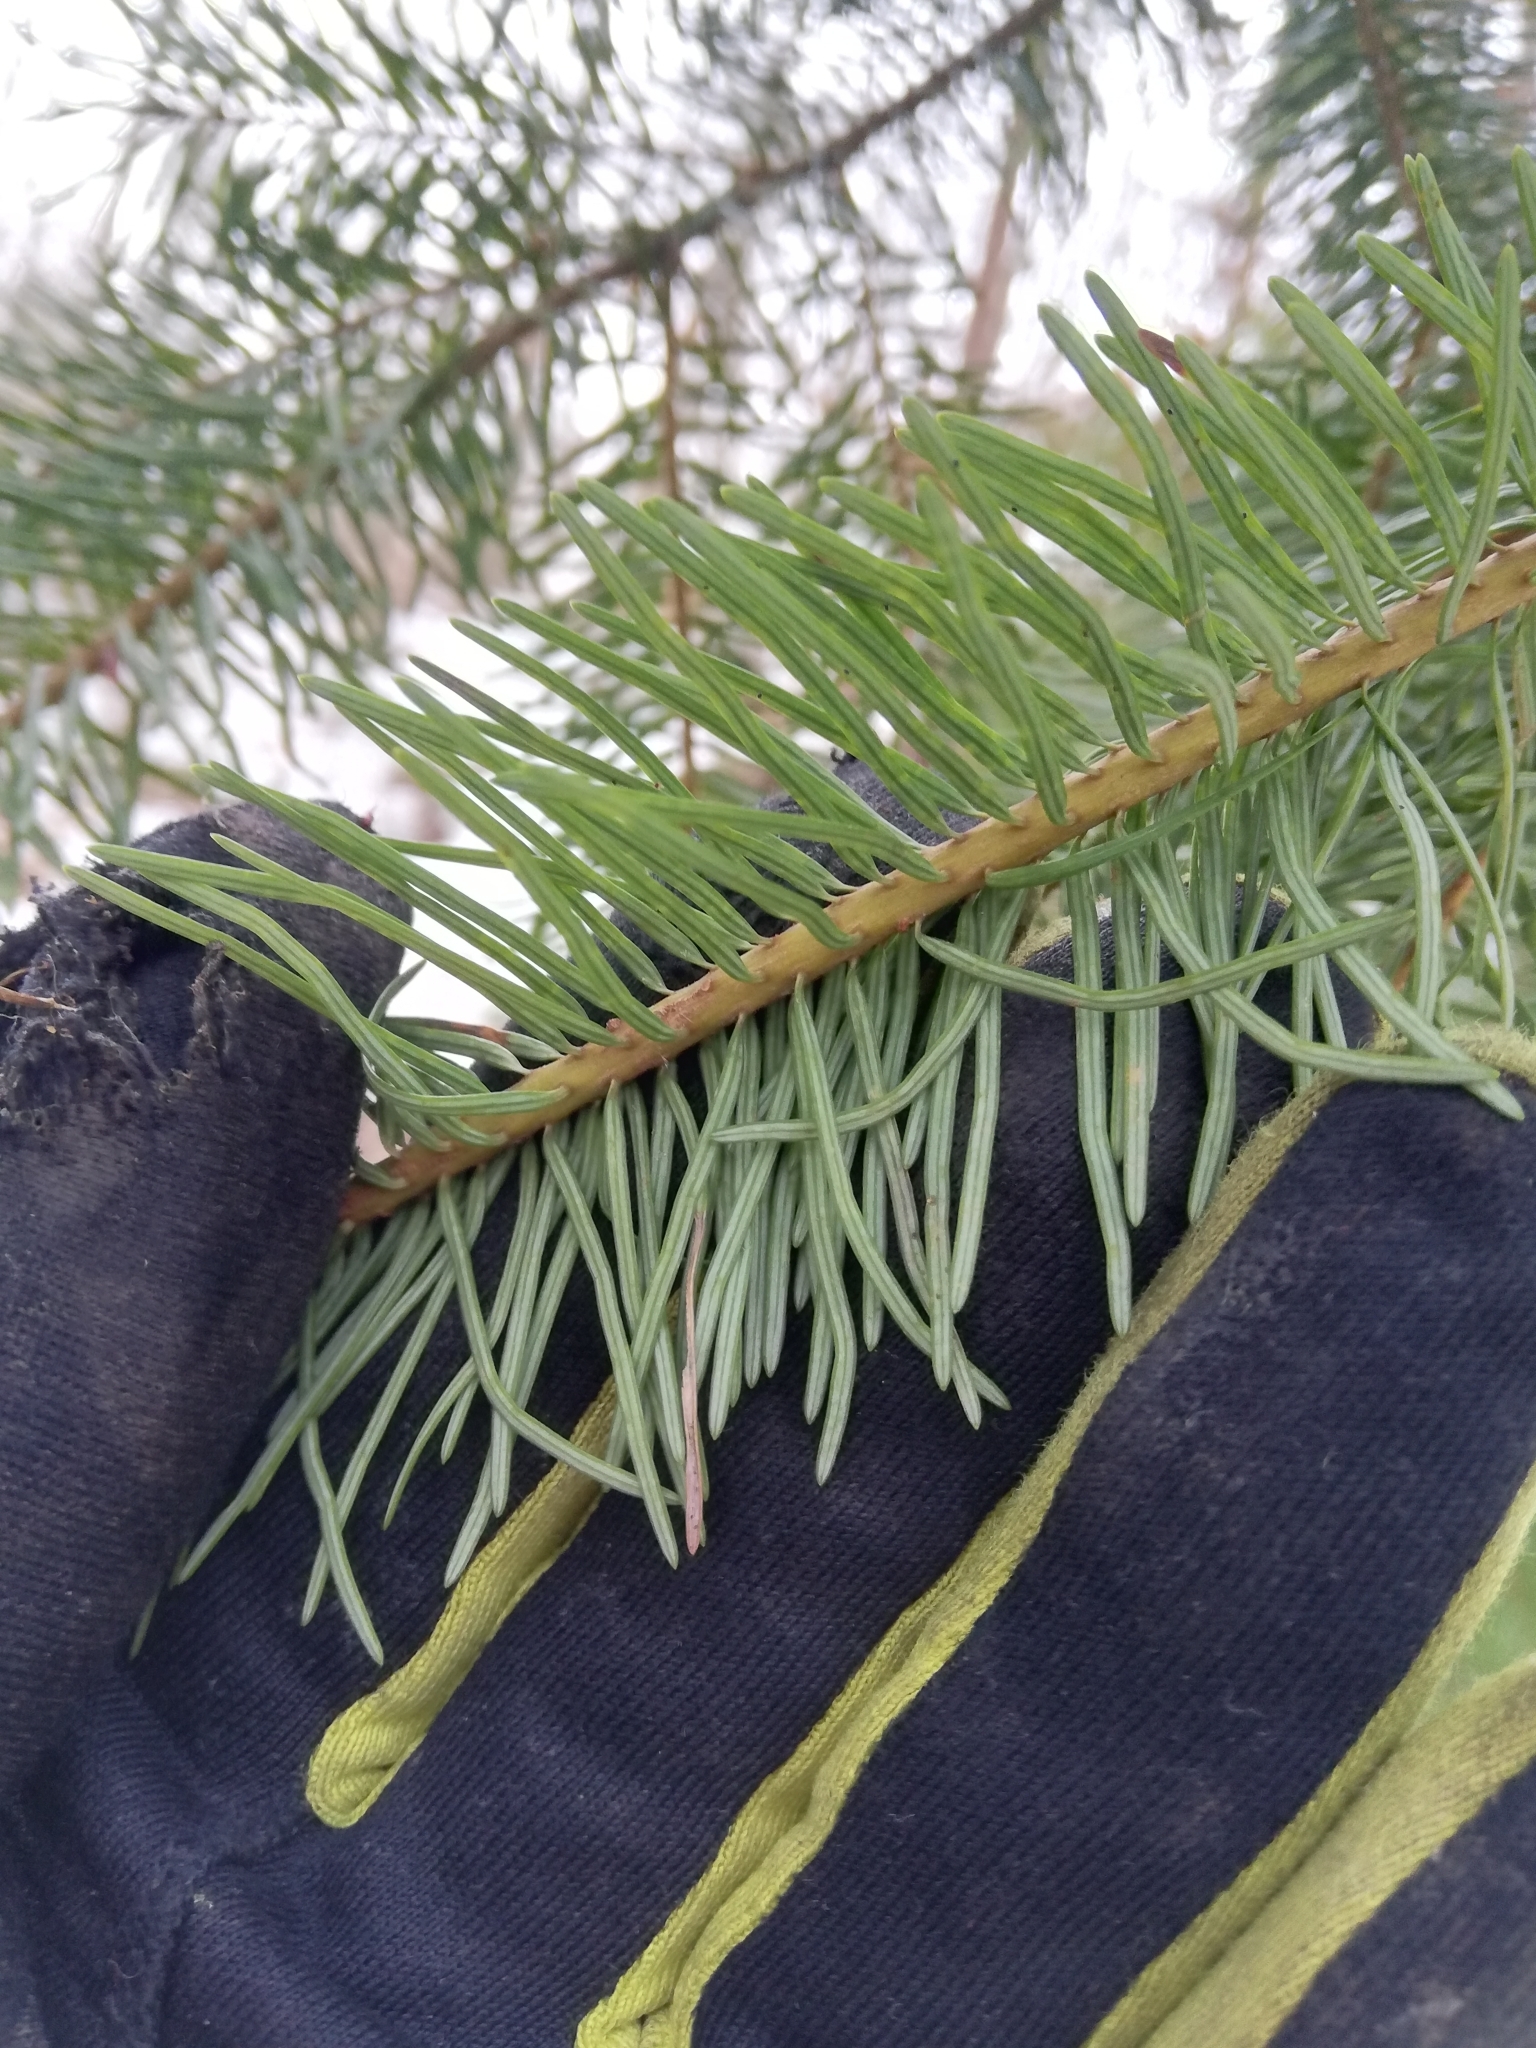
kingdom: Plantae
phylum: Tracheophyta
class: Pinopsida
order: Pinales
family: Pinaceae
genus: Pseudotsuga
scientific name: Pseudotsuga menziesii
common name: Douglas fir
